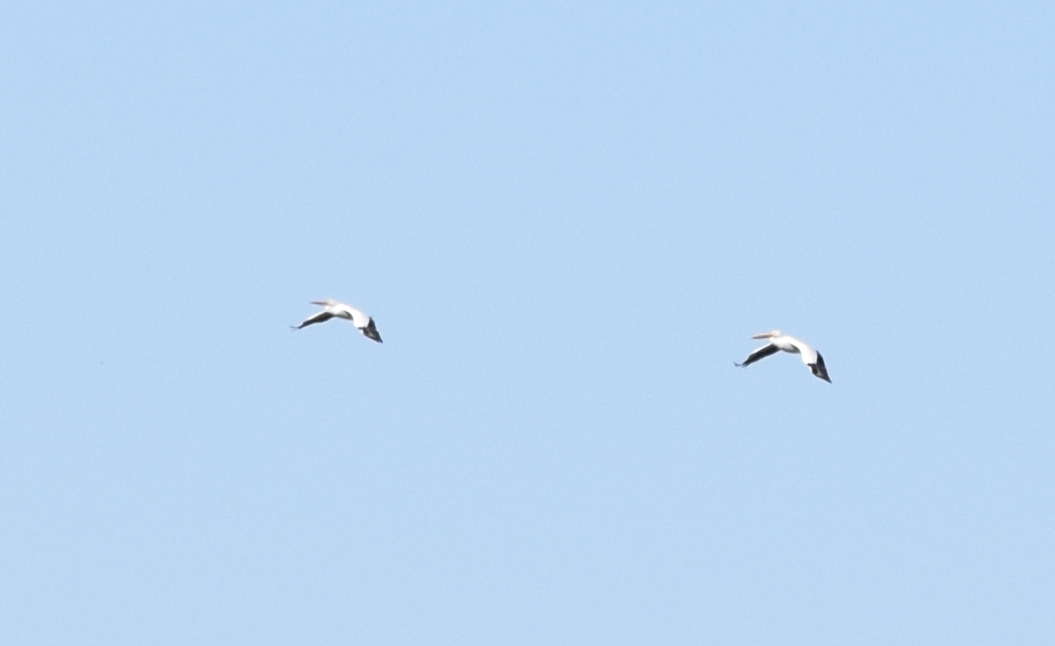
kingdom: Animalia
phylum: Chordata
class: Aves
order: Pelecaniformes
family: Pelecanidae
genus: Pelecanus
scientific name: Pelecanus erythrorhynchos
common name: American white pelican
